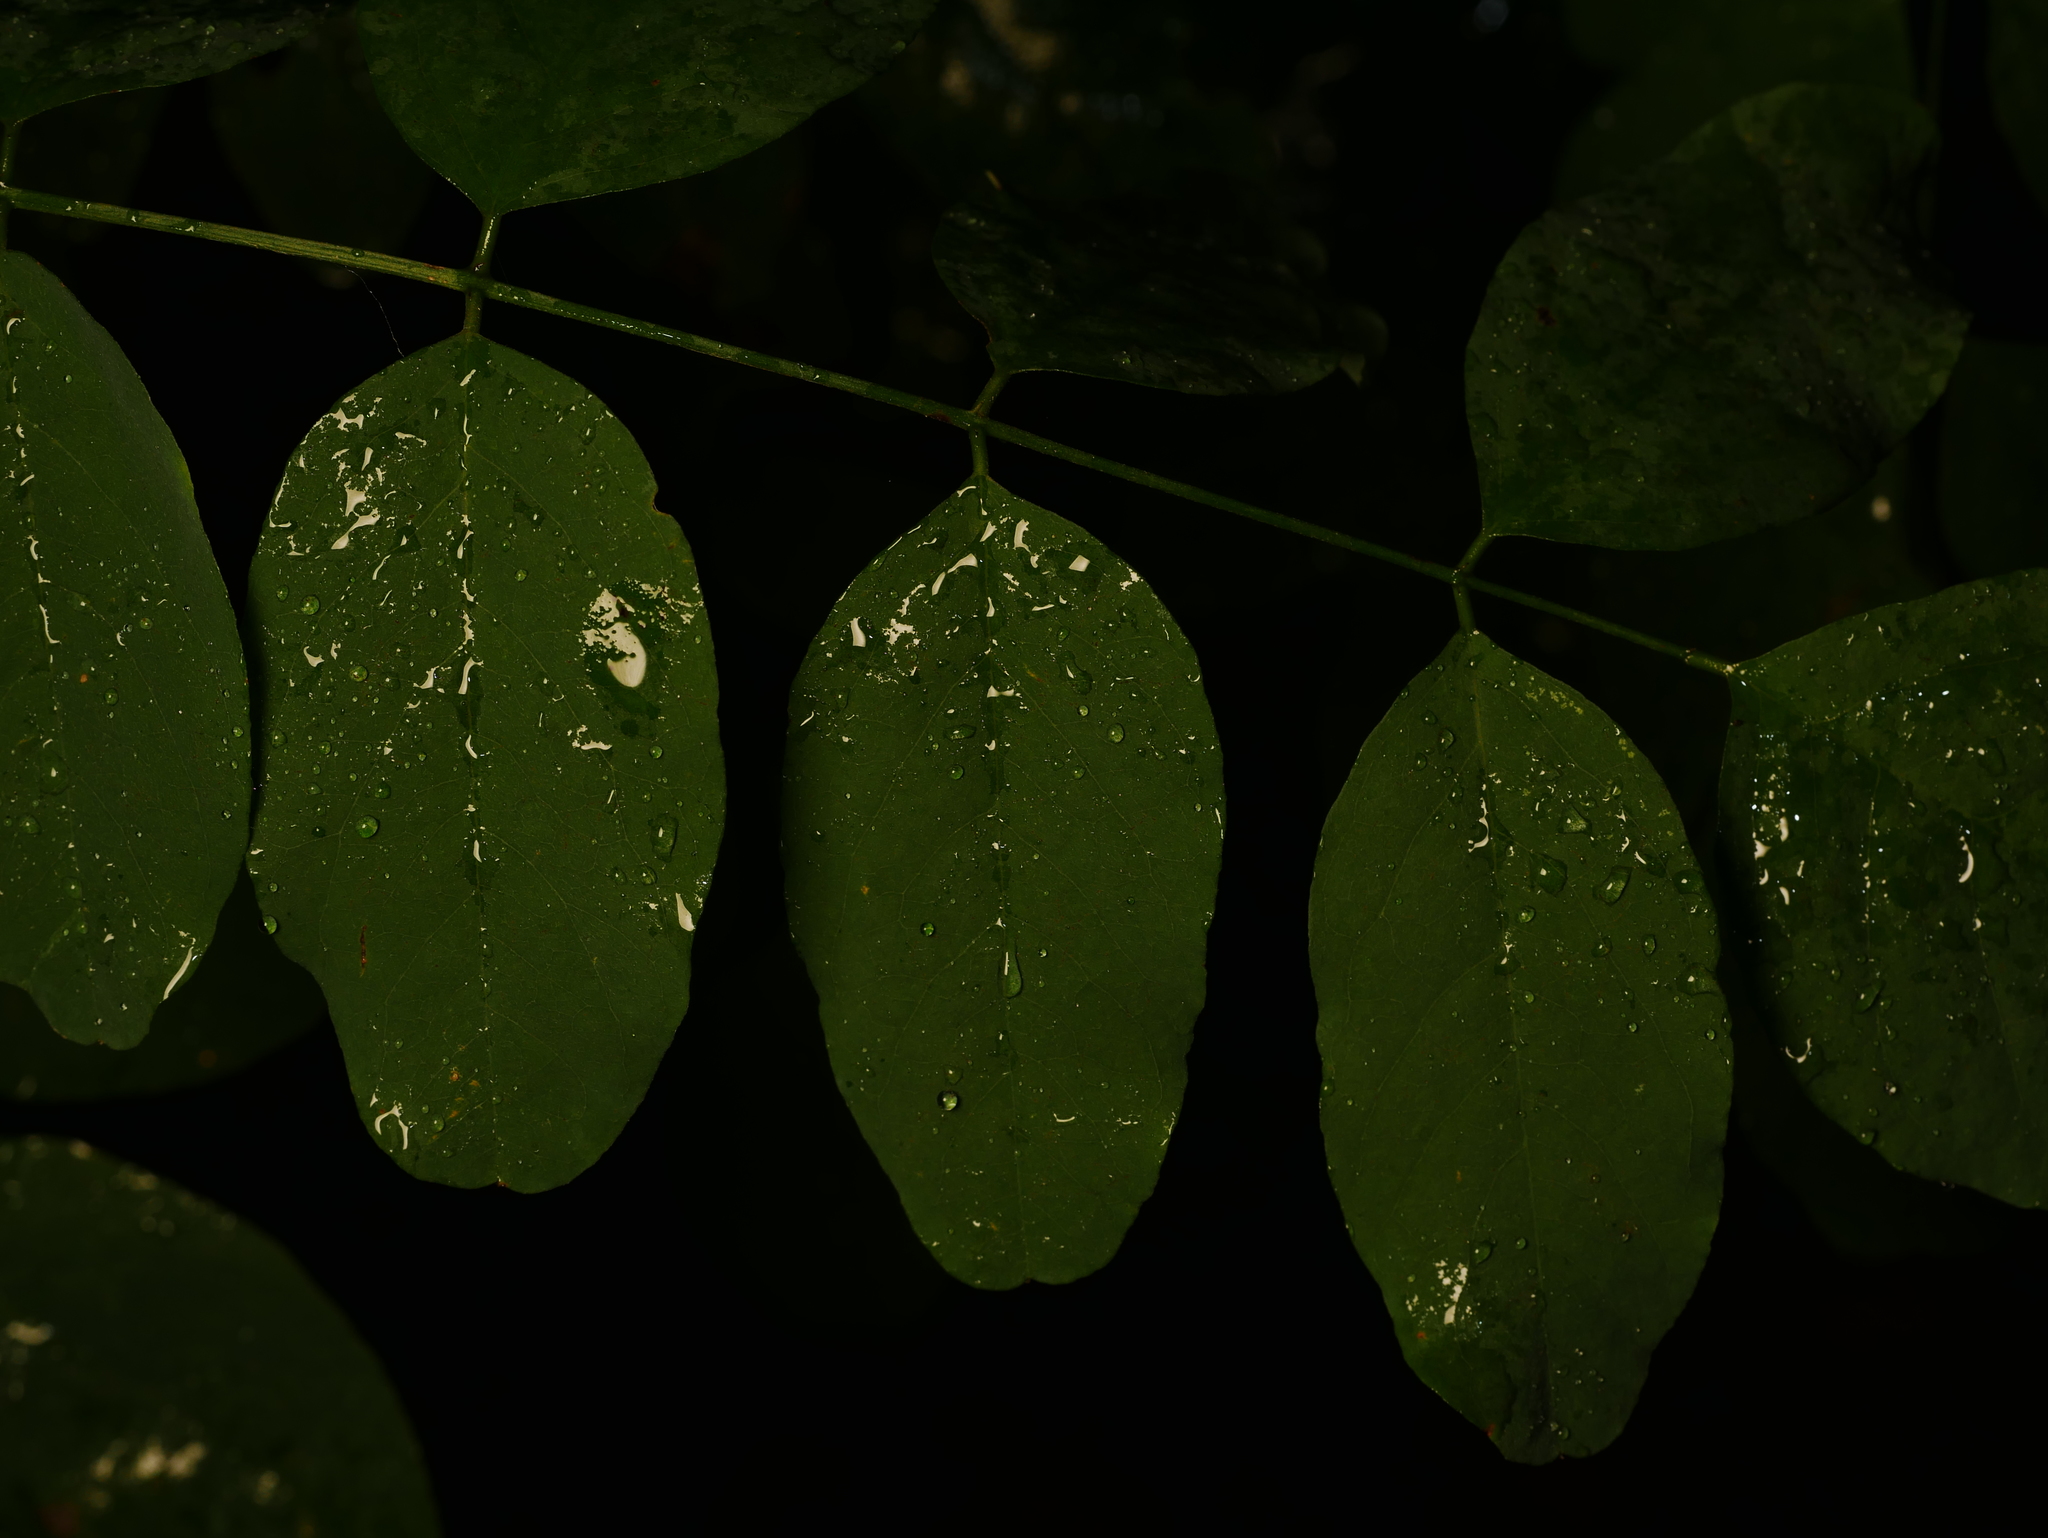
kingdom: Plantae
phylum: Tracheophyta
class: Magnoliopsida
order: Fabales
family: Fabaceae
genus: Robinia
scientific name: Robinia pseudoacacia
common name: Black locust
